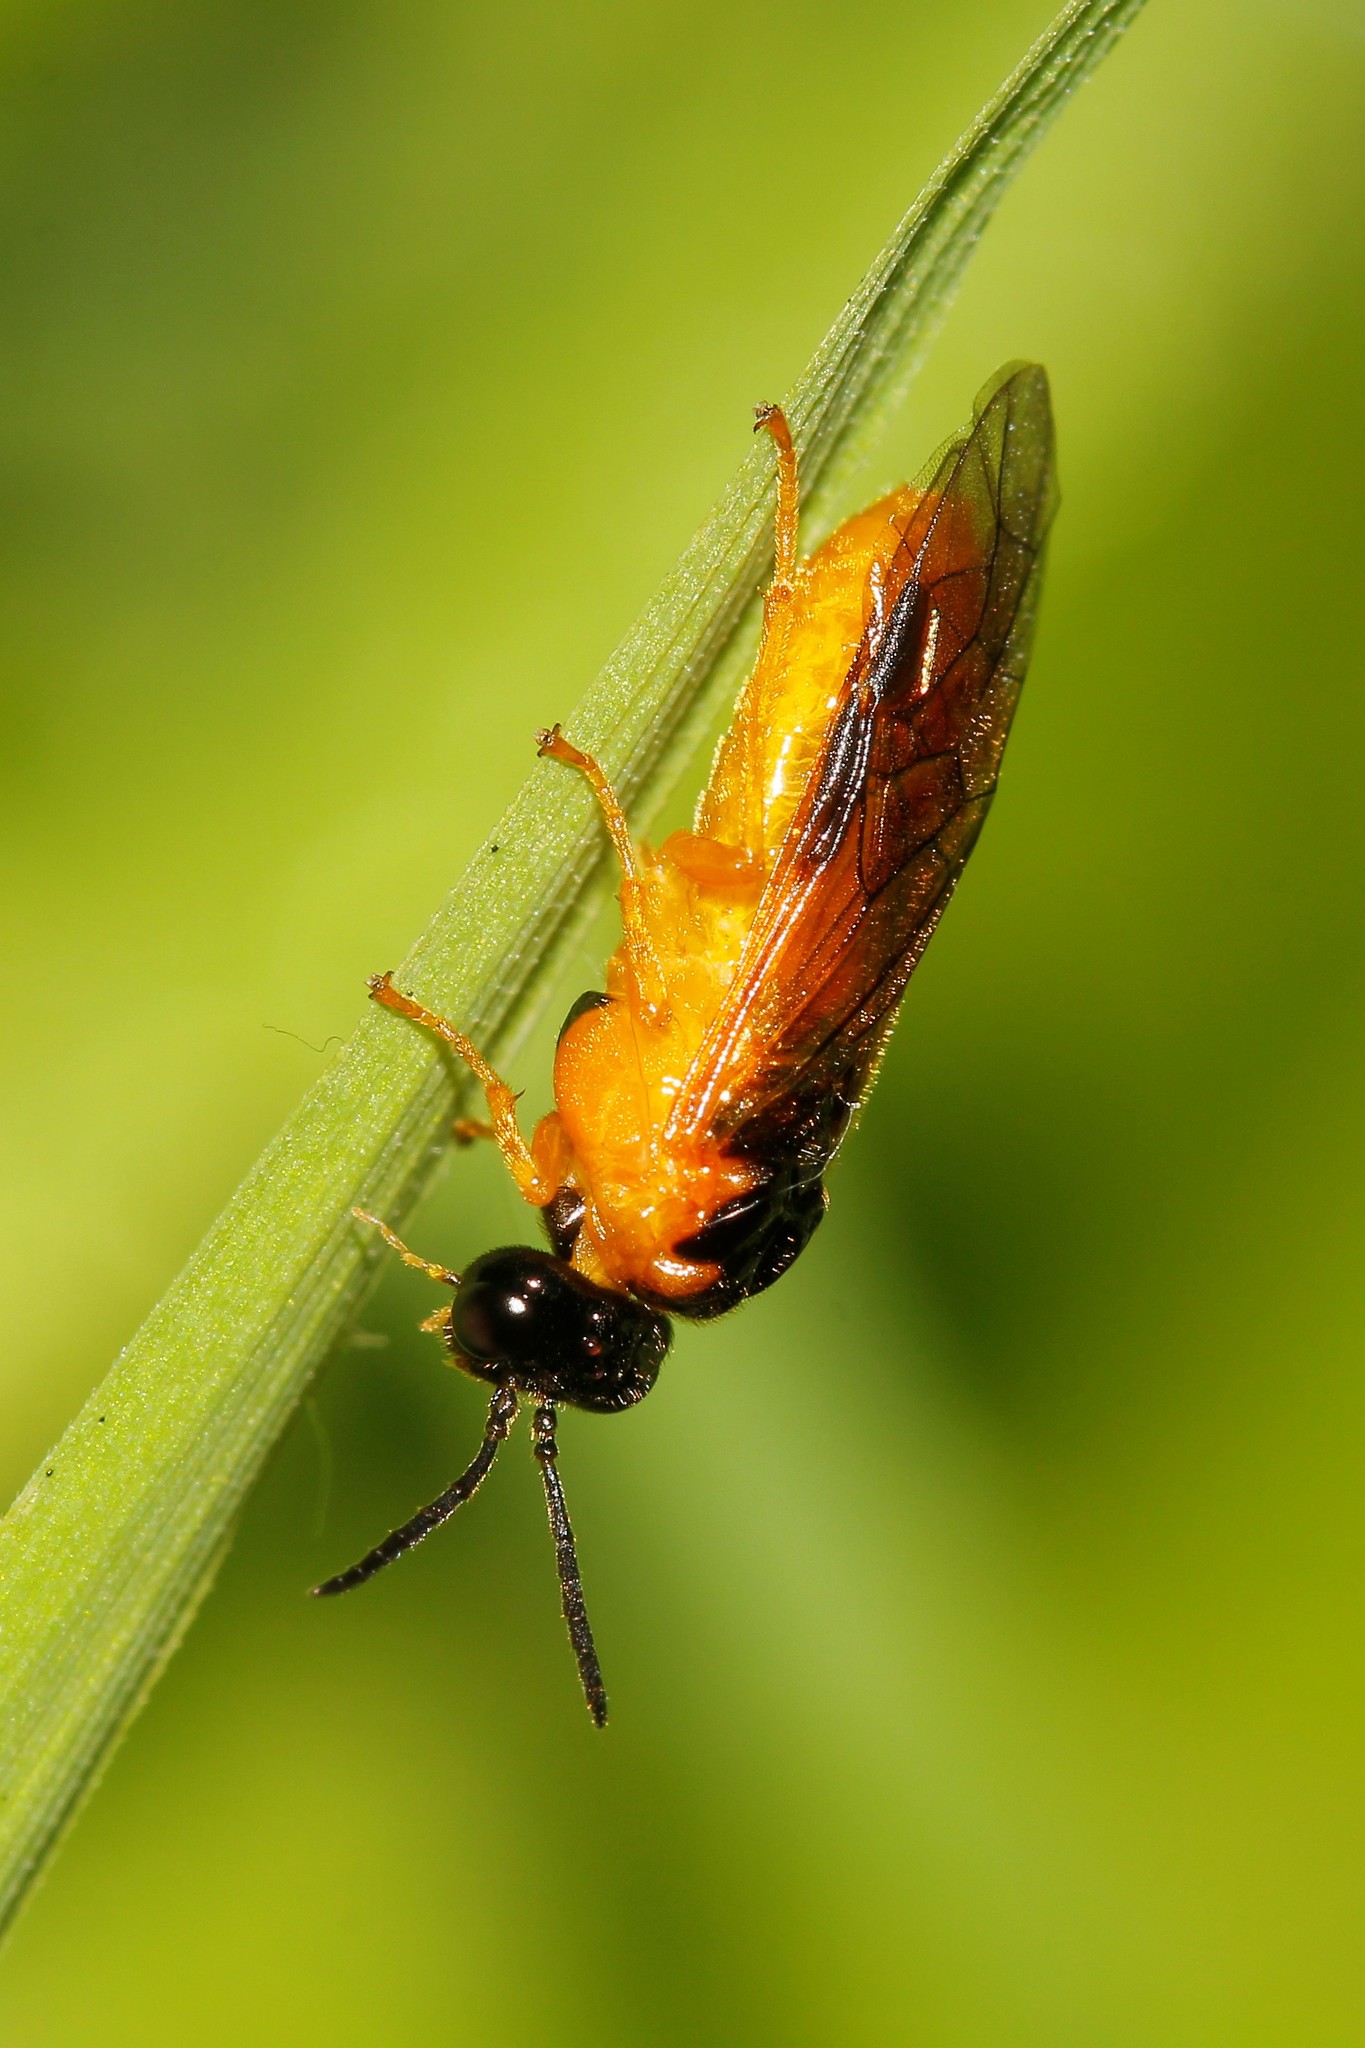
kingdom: Animalia
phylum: Arthropoda
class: Insecta
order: Hymenoptera
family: Tenthredinidae
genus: Selandria
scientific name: Selandria serva
